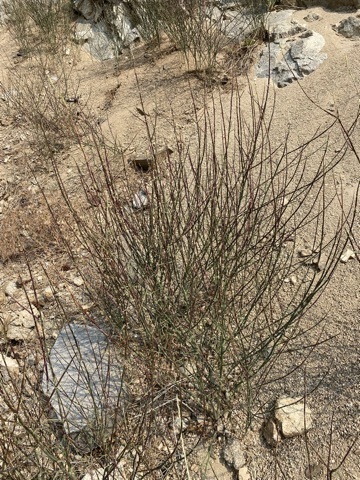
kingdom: Plantae
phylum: Tracheophyta
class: Magnoliopsida
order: Asterales
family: Asteraceae
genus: Chondrilla
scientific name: Chondrilla juncea
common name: Skeleton weed
